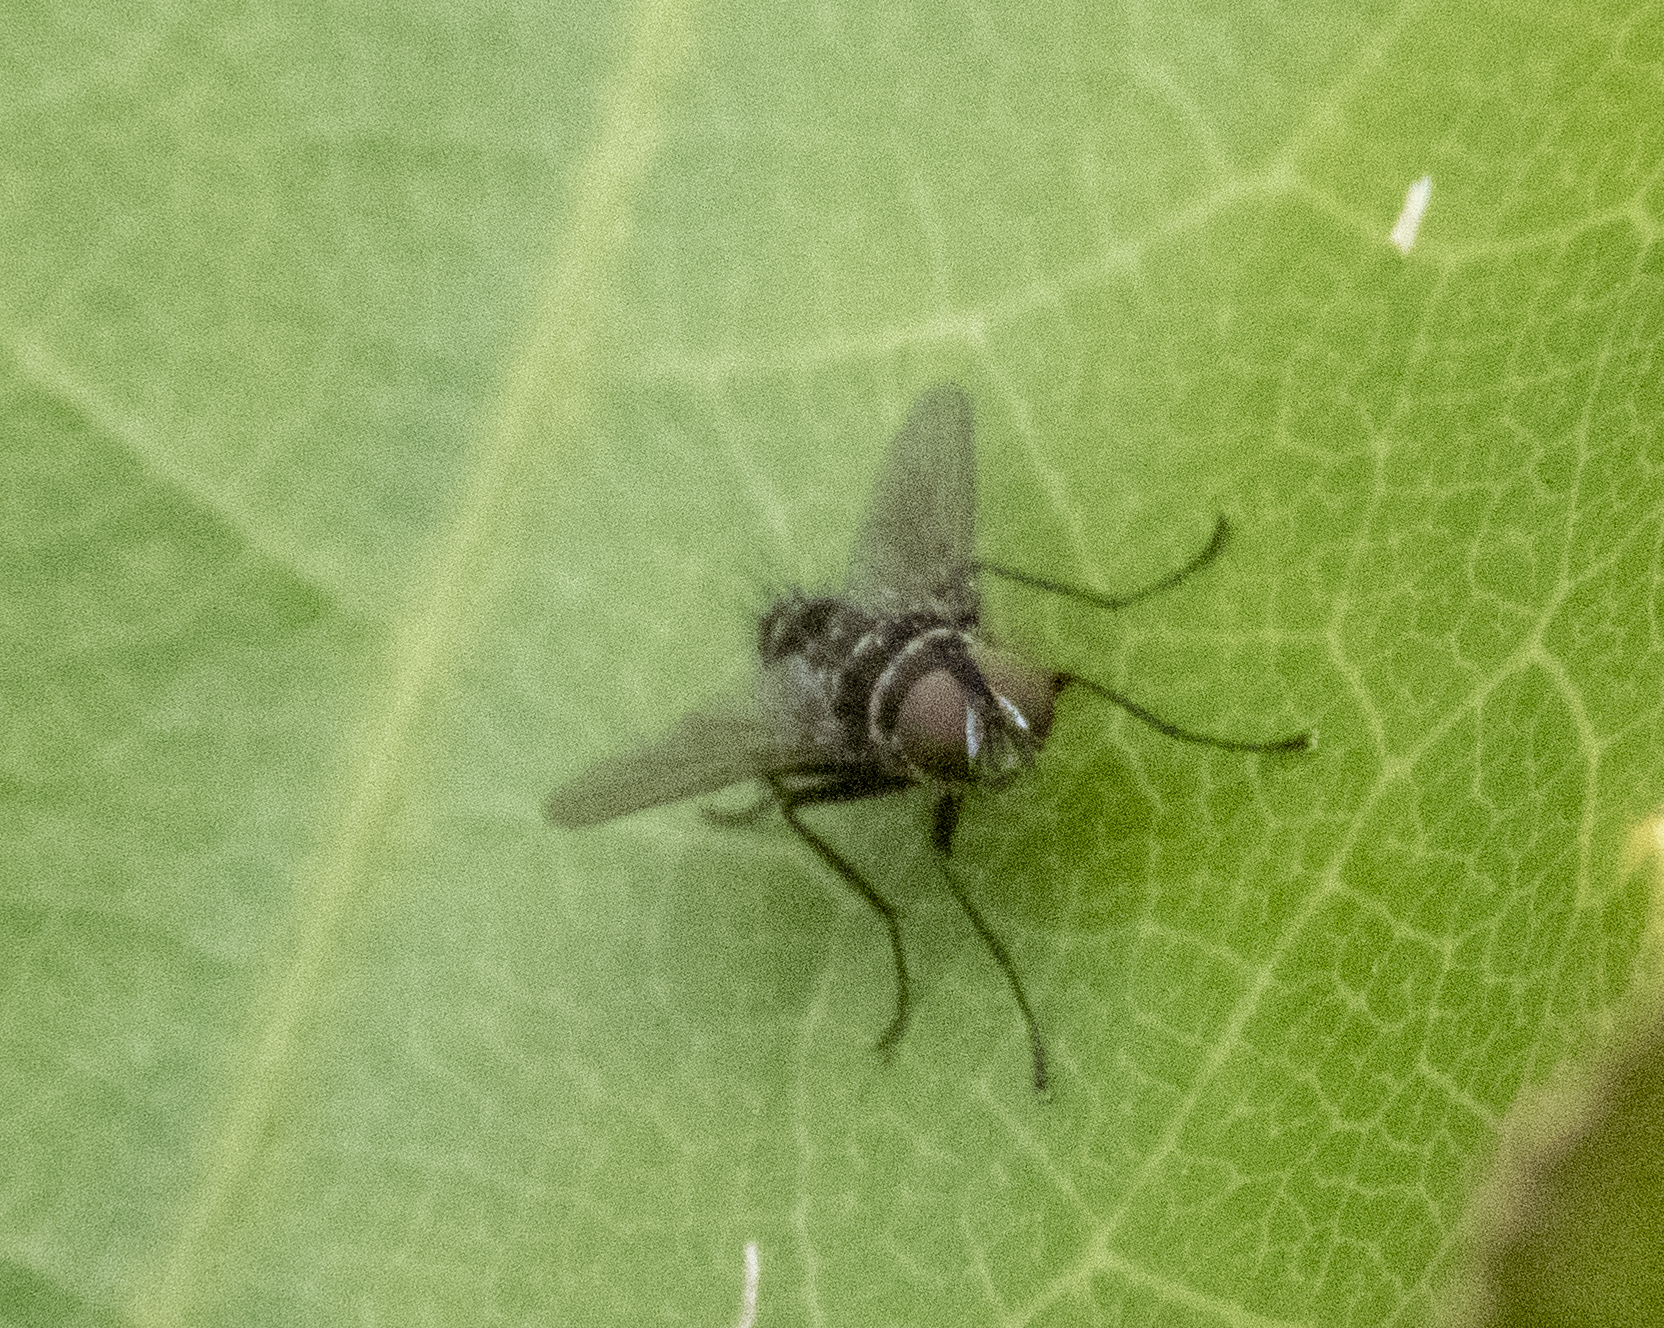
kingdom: Animalia
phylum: Arthropoda
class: Insecta
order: Diptera
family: Tachinidae
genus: Trigonospila
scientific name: Trigonospila brevifacies
